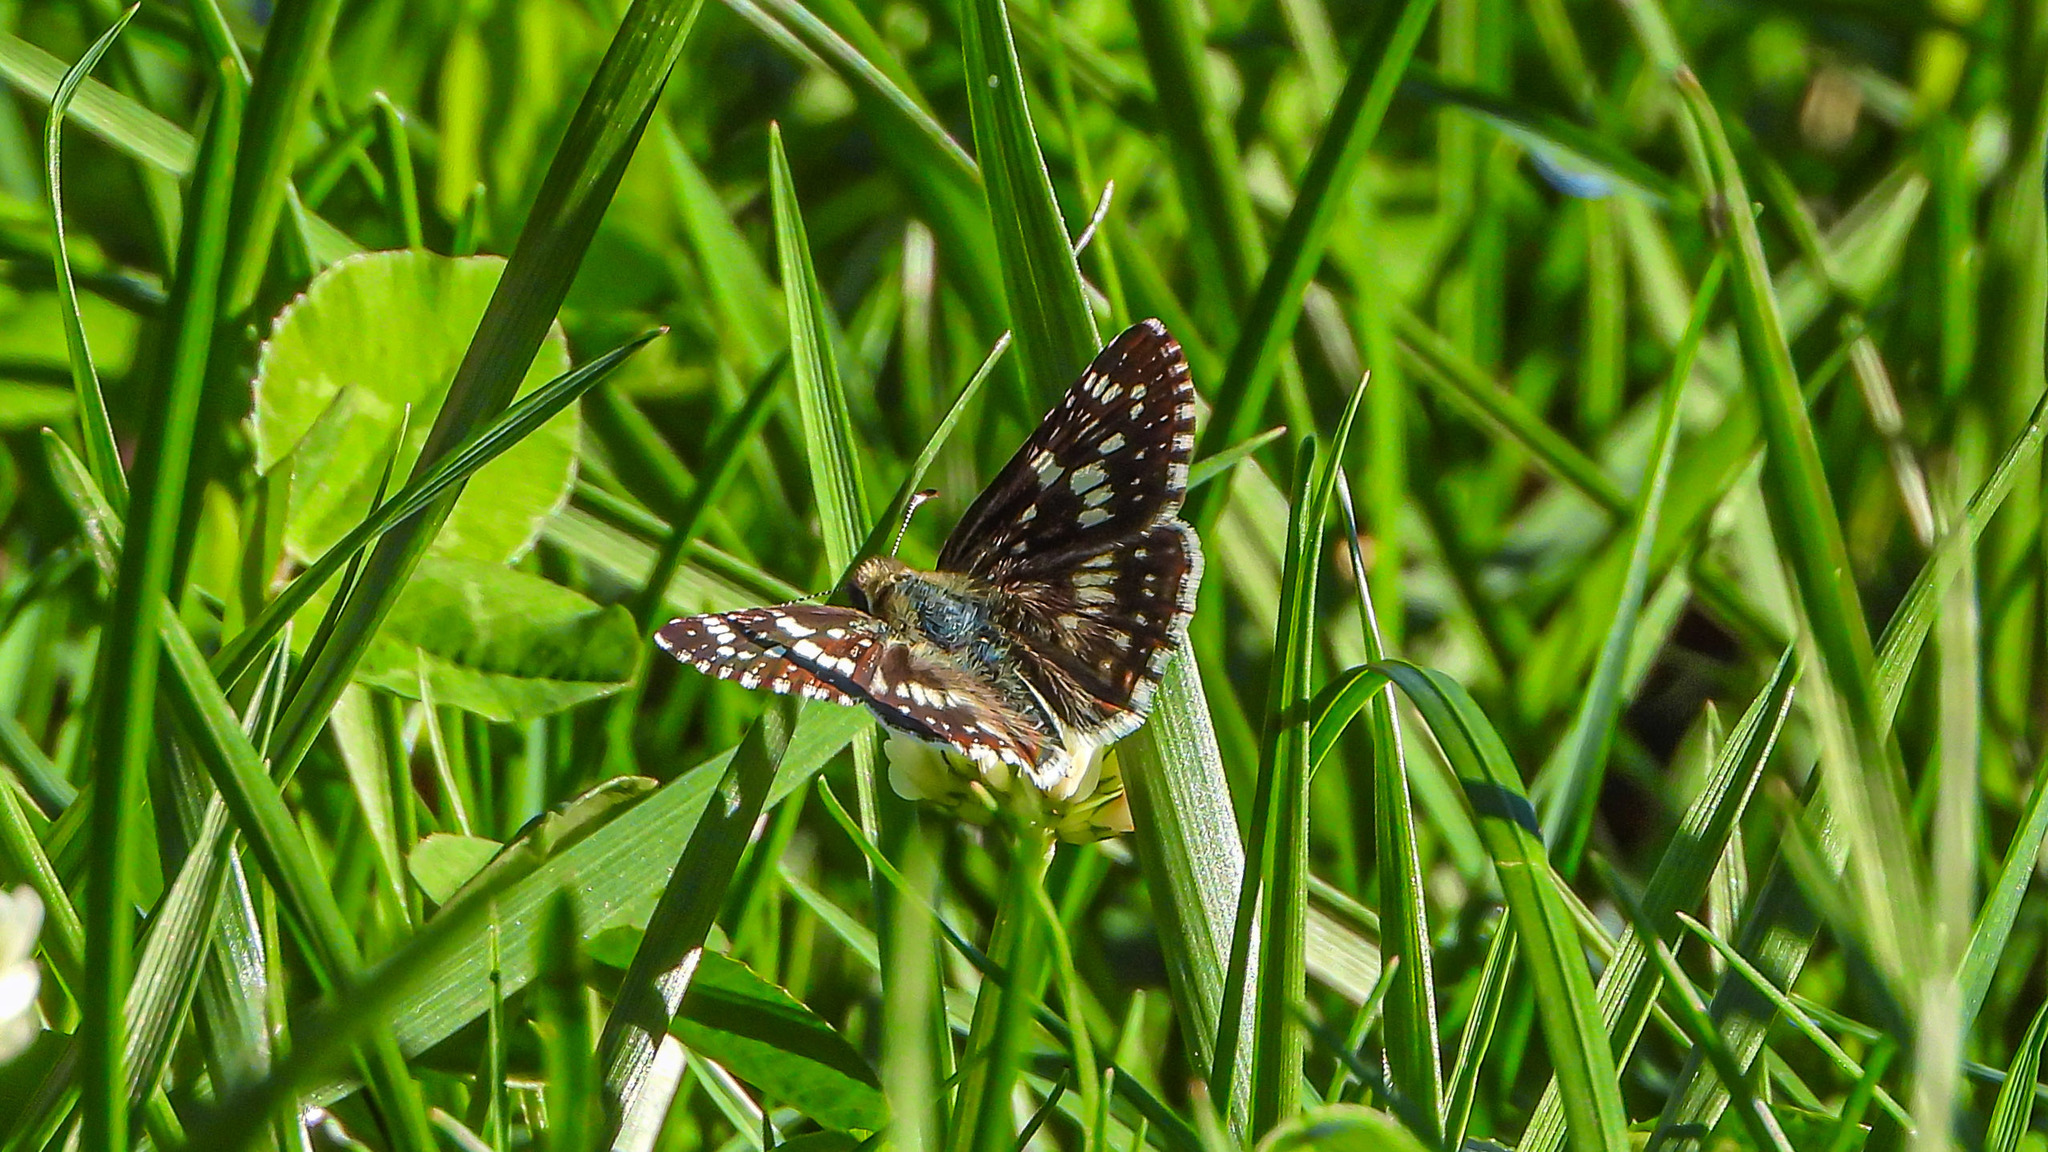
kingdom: Animalia
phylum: Arthropoda
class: Insecta
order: Lepidoptera
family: Hesperiidae
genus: Burnsius
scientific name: Burnsius communis
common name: Common checkered-skipper
